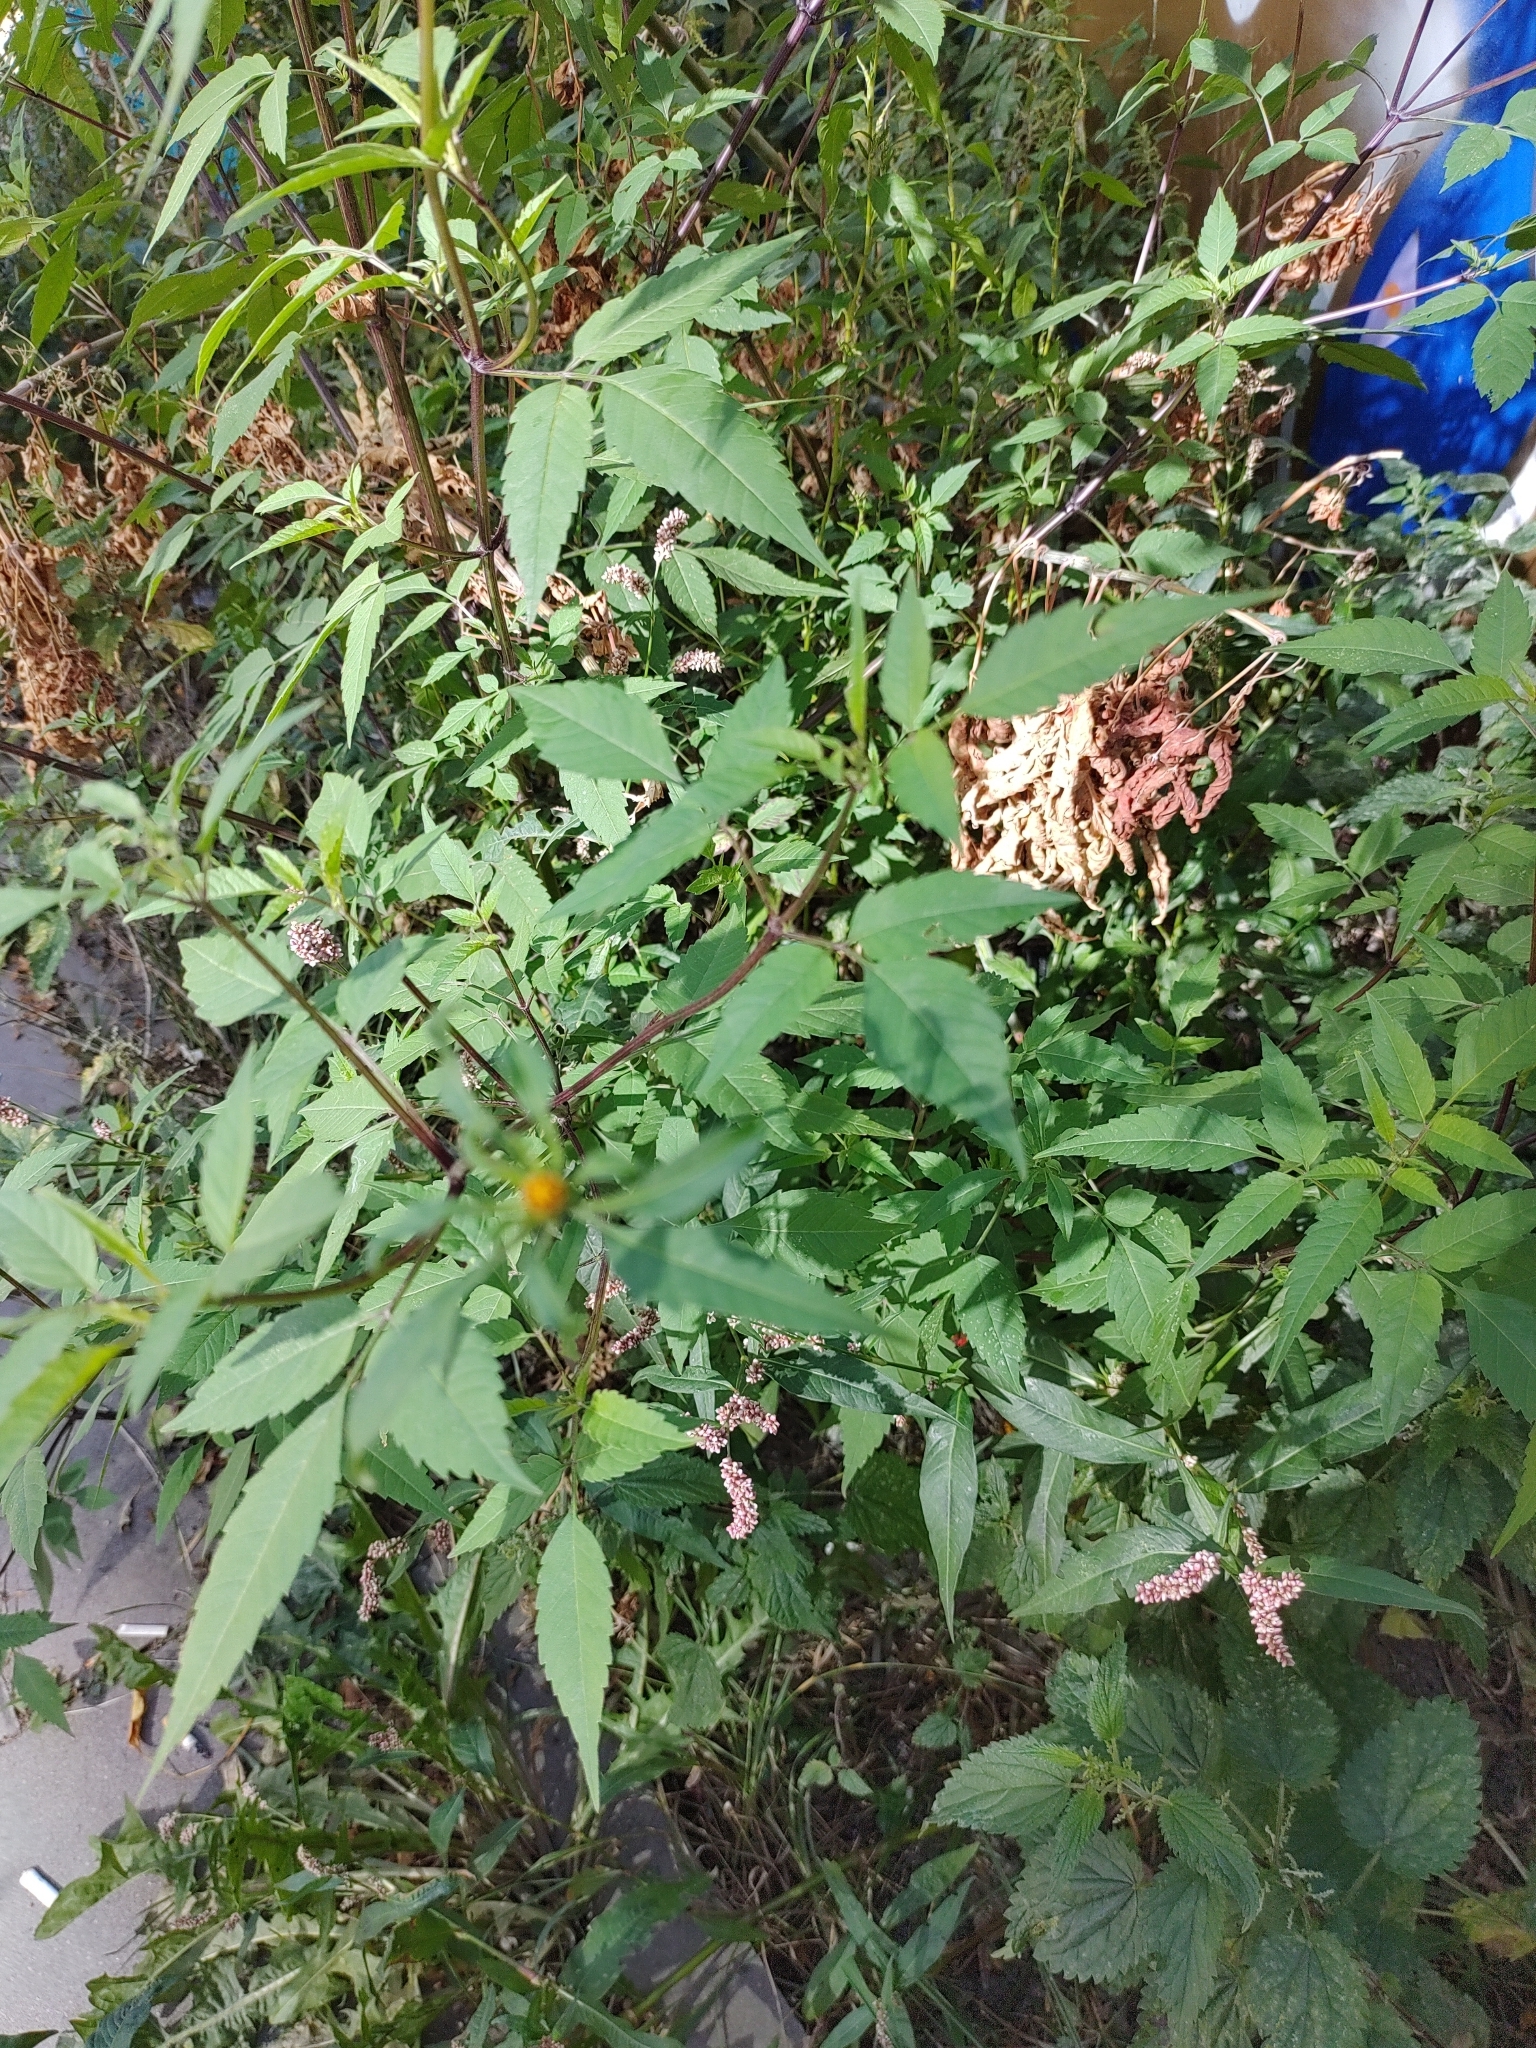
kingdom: Plantae
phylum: Tracheophyta
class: Magnoliopsida
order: Asterales
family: Asteraceae
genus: Bidens
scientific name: Bidens frondosa
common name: Beggarticks
